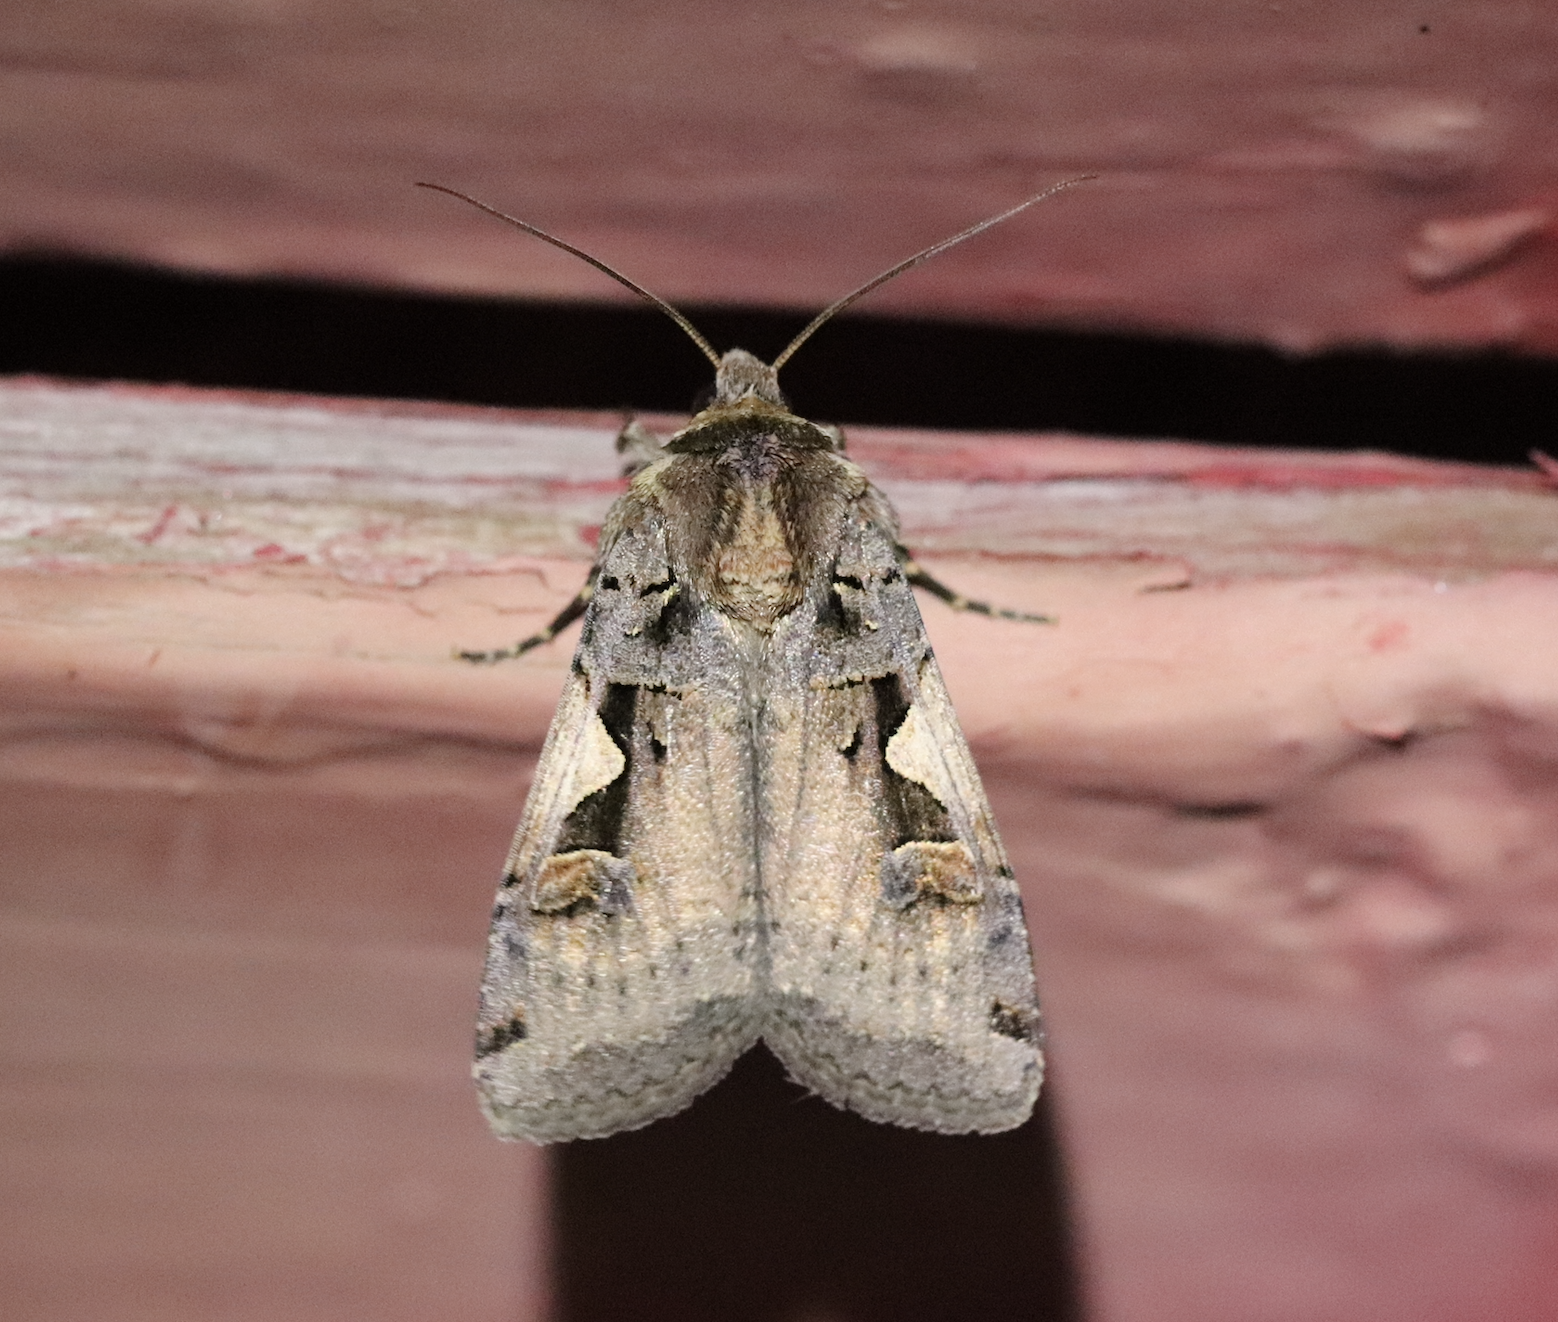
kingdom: Animalia
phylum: Arthropoda
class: Insecta
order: Lepidoptera
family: Noctuidae
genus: Xestia
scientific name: Xestia c-nigrum
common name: Setaceous hebrew character
